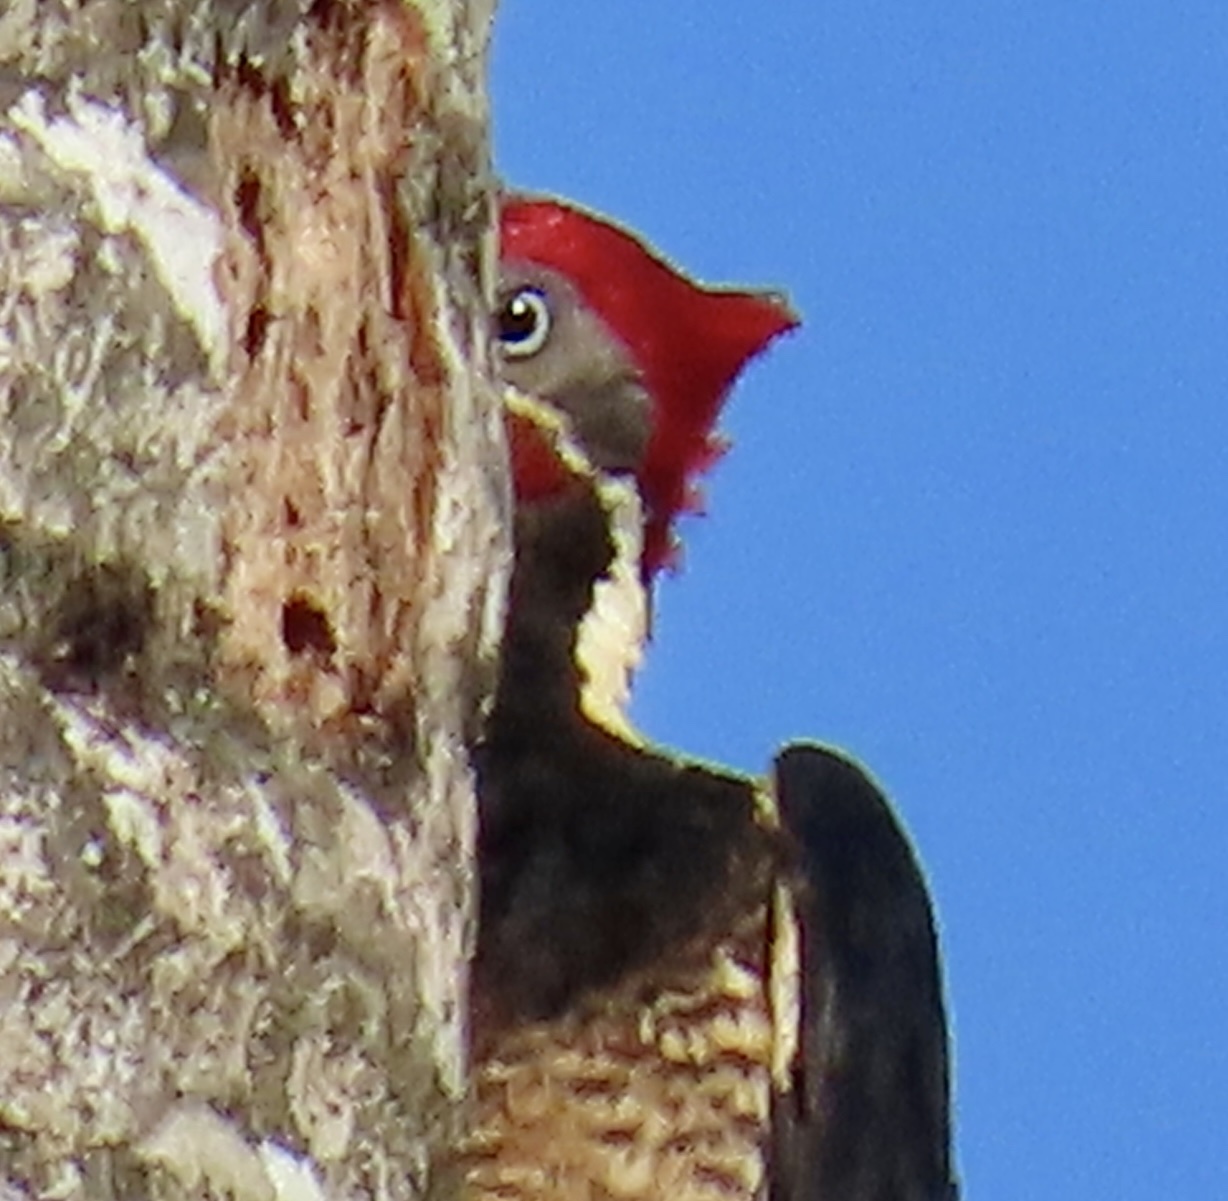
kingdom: Animalia
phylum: Chordata
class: Aves
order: Piciformes
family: Picidae
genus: Dryocopus
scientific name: Dryocopus lineatus
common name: Lineated woodpecker
